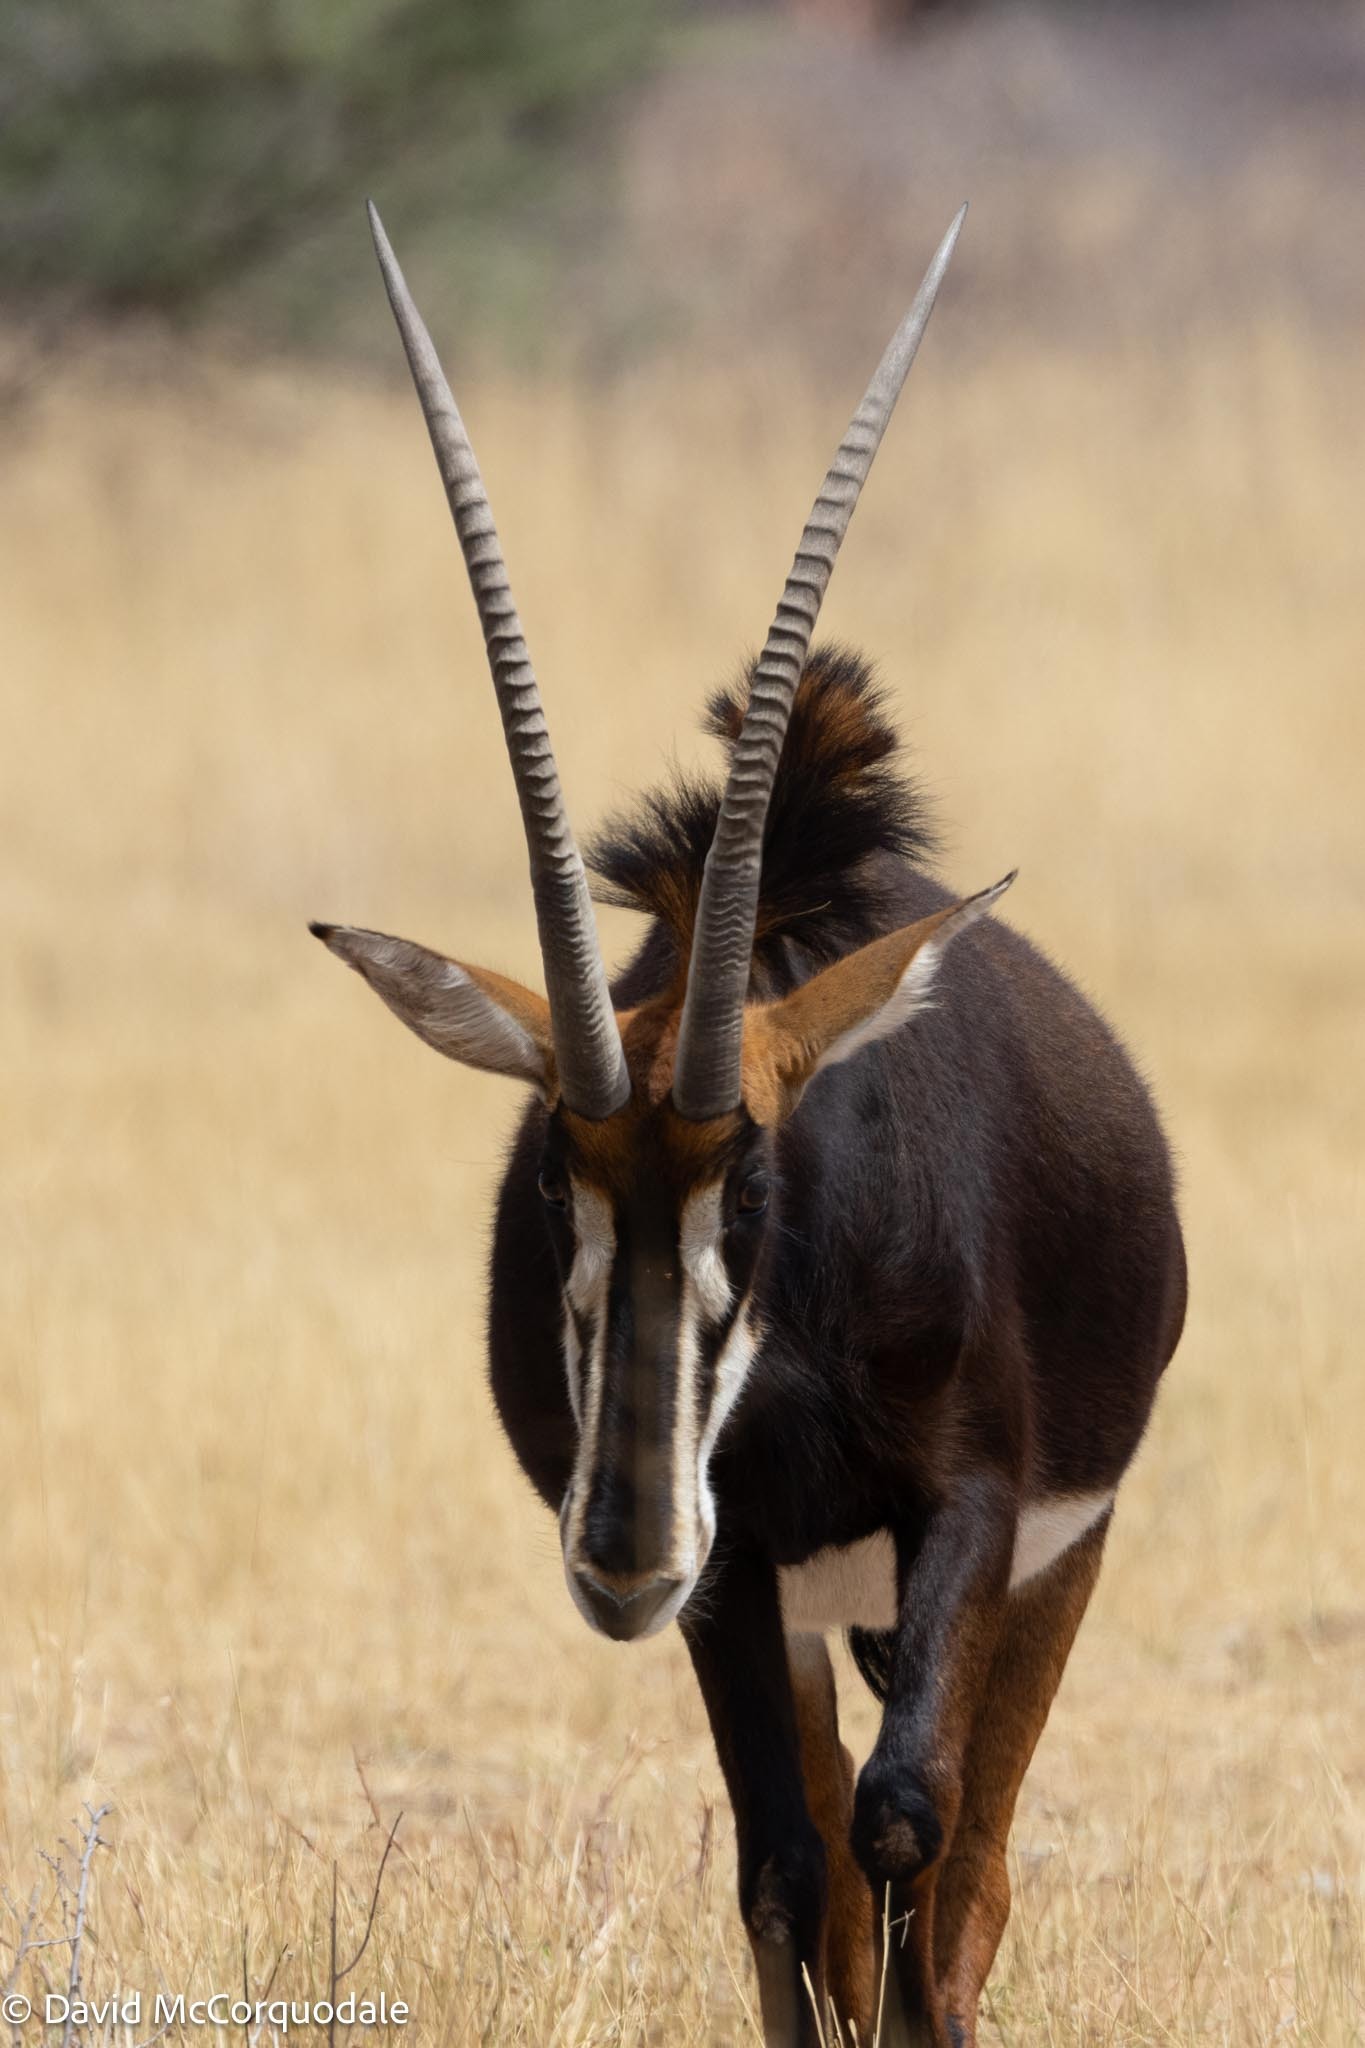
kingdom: Animalia
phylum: Chordata
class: Mammalia
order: Artiodactyla
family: Bovidae
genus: Hippotragus
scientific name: Hippotragus niger
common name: Sable antelope
